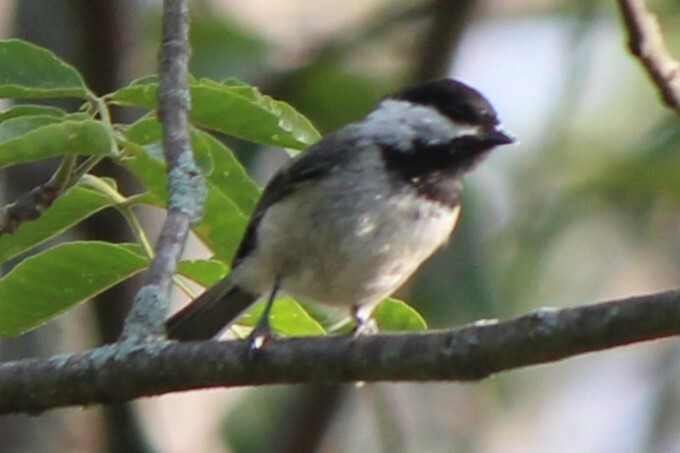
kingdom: Animalia
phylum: Chordata
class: Aves
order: Passeriformes
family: Paridae
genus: Poecile
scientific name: Poecile atricapillus
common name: Black-capped chickadee
